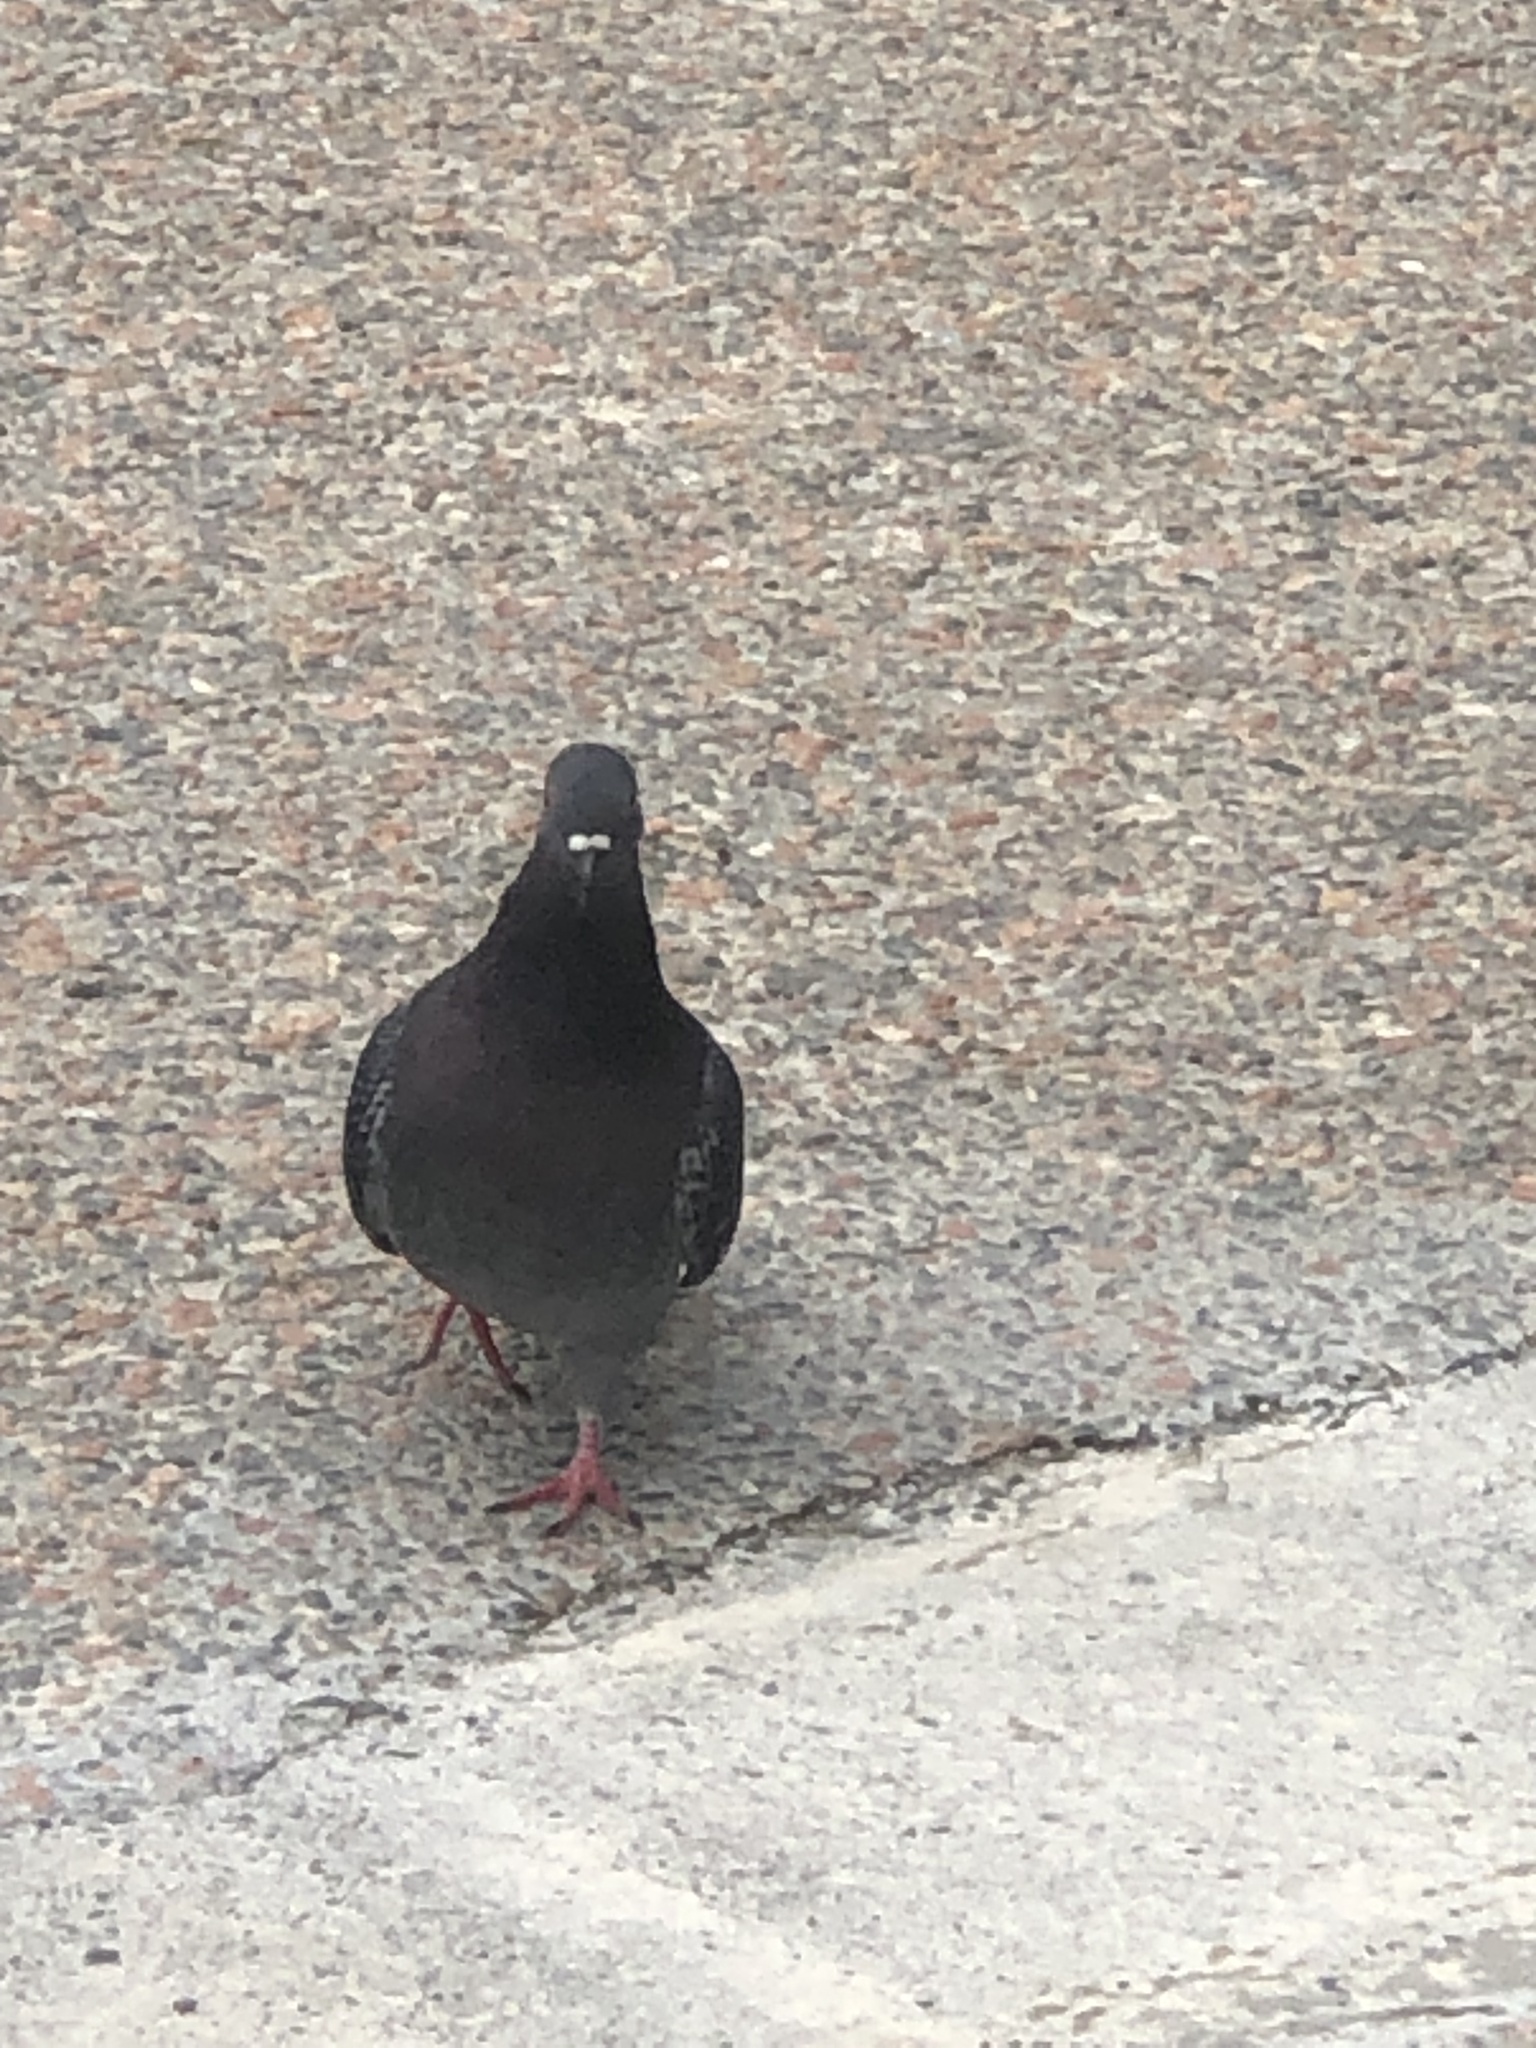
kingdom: Animalia
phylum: Chordata
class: Aves
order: Columbiformes
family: Columbidae
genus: Columba
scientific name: Columba livia
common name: Rock pigeon
